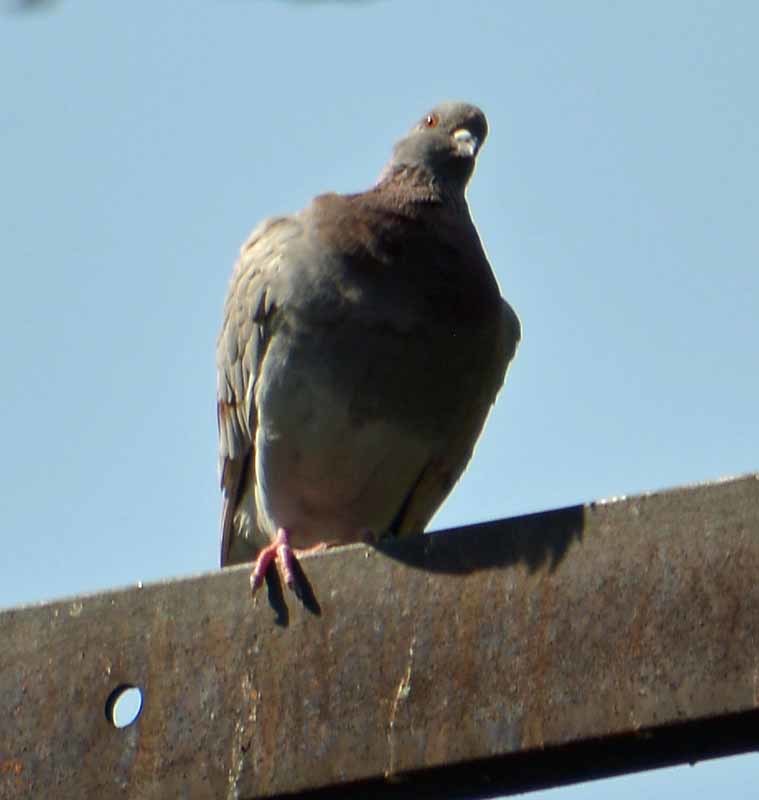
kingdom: Animalia
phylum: Chordata
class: Aves
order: Columbiformes
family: Columbidae
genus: Columba
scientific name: Columba livia
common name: Rock pigeon
